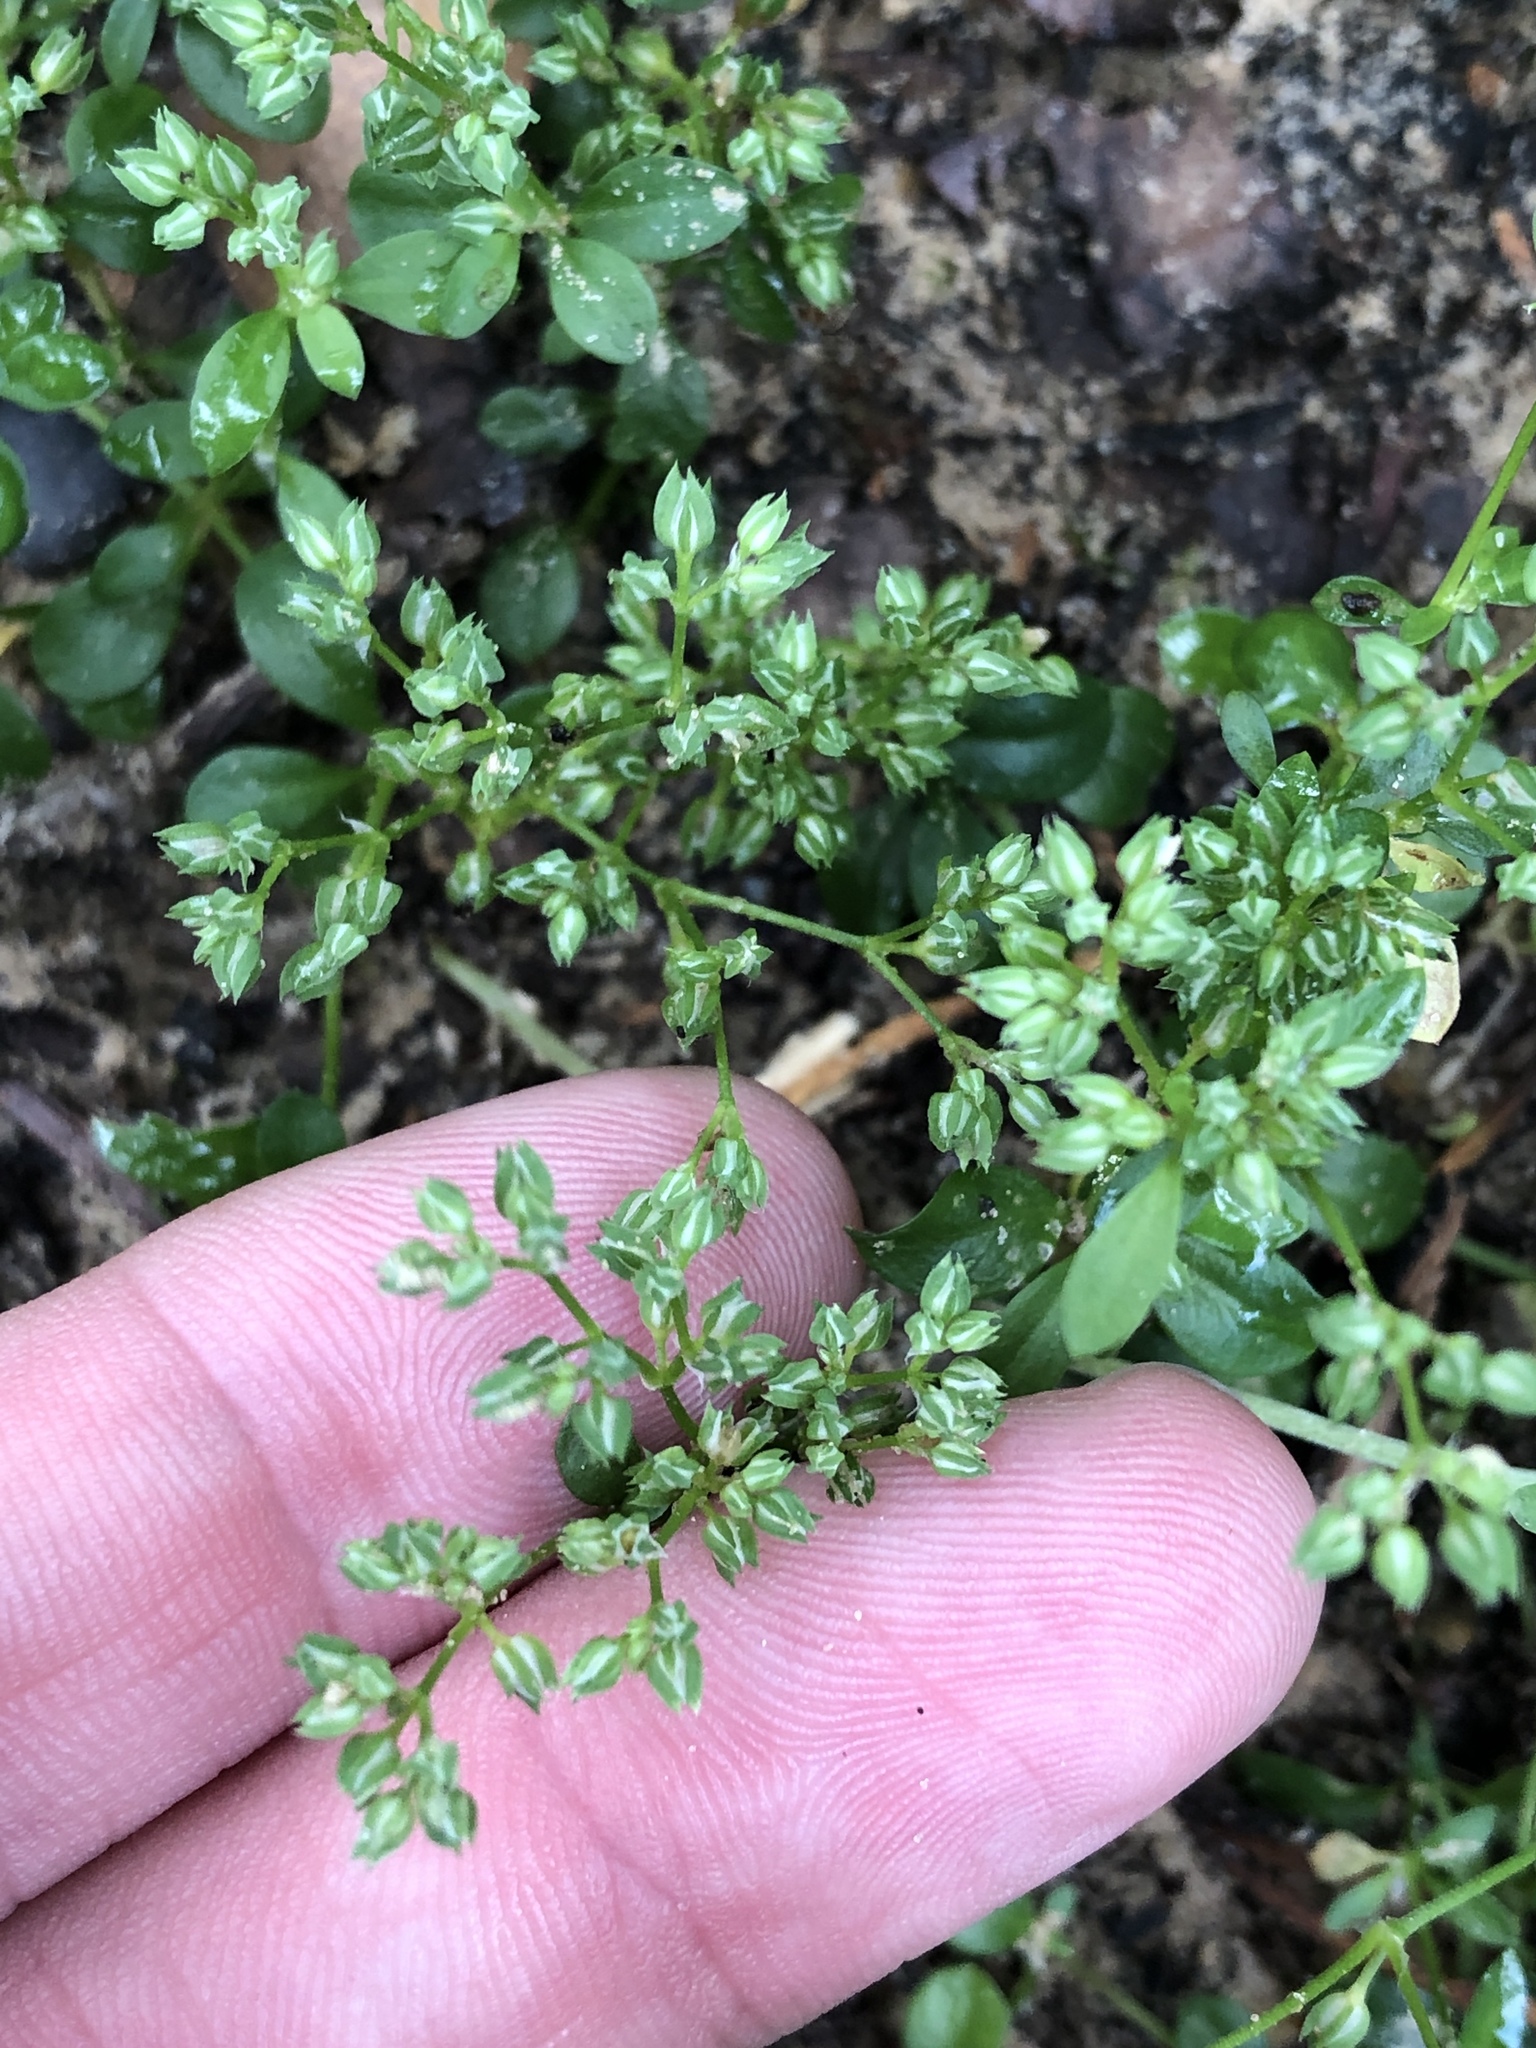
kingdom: Plantae
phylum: Tracheophyta
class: Magnoliopsida
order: Caryophyllales
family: Caryophyllaceae
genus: Polycarpon
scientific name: Polycarpon tetraphyllum
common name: Four-leaved all-seed
